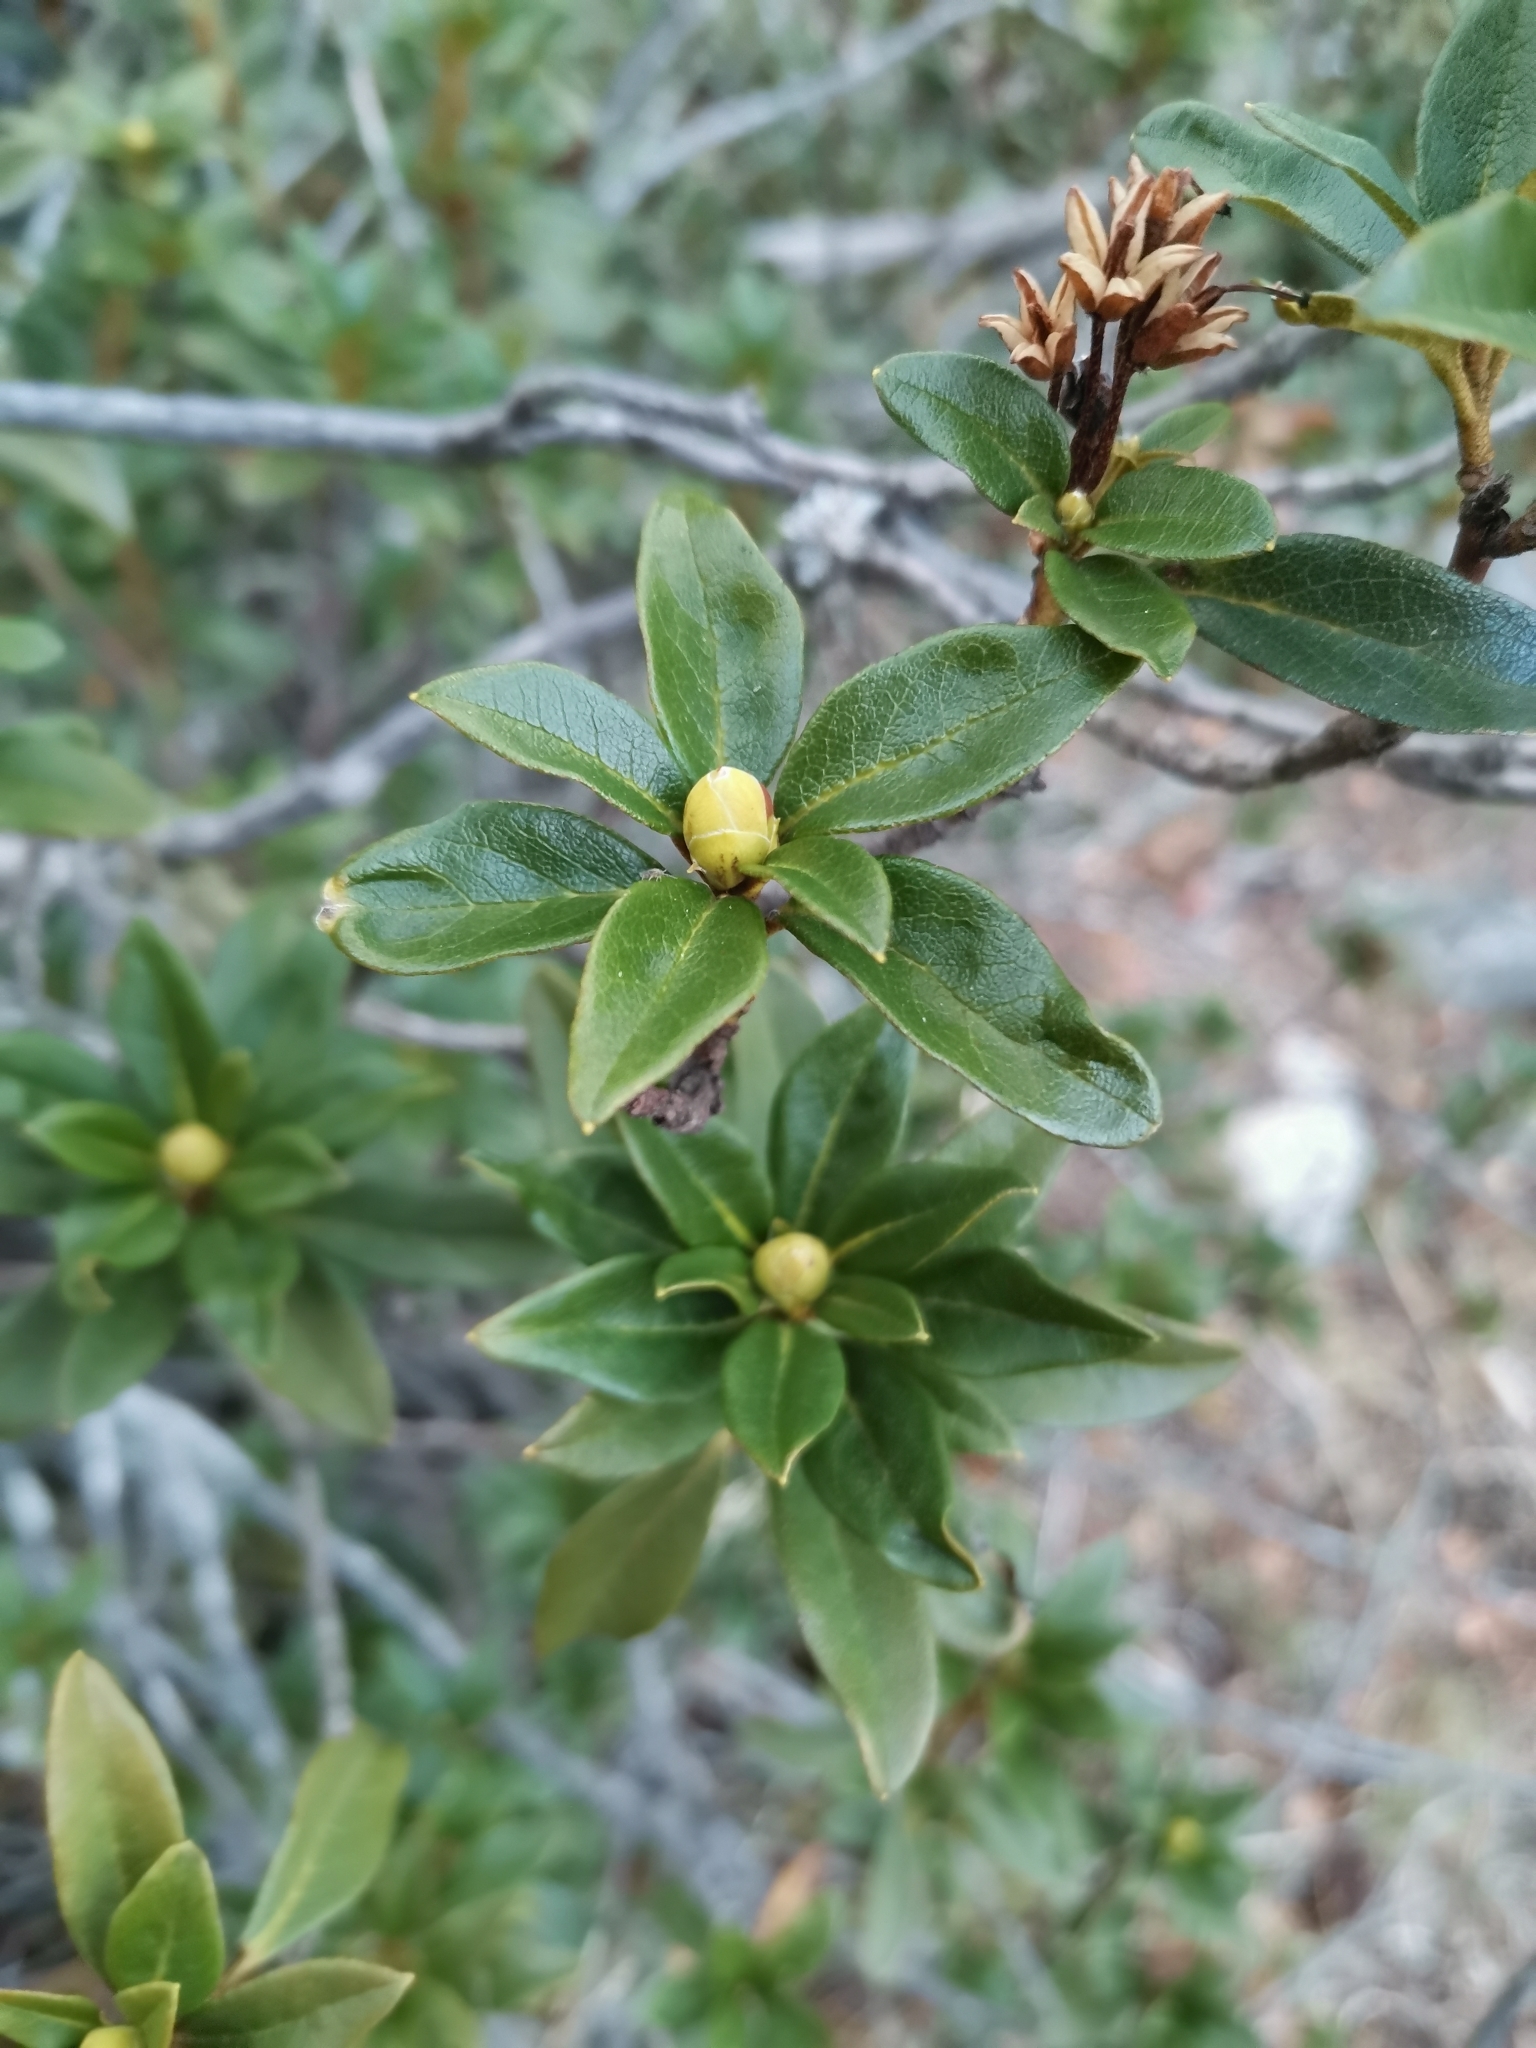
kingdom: Plantae
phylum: Tracheophyta
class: Magnoliopsida
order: Ericales
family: Ericaceae
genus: Rhododendron
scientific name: Rhododendron ferrugineum
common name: Alpenrose
